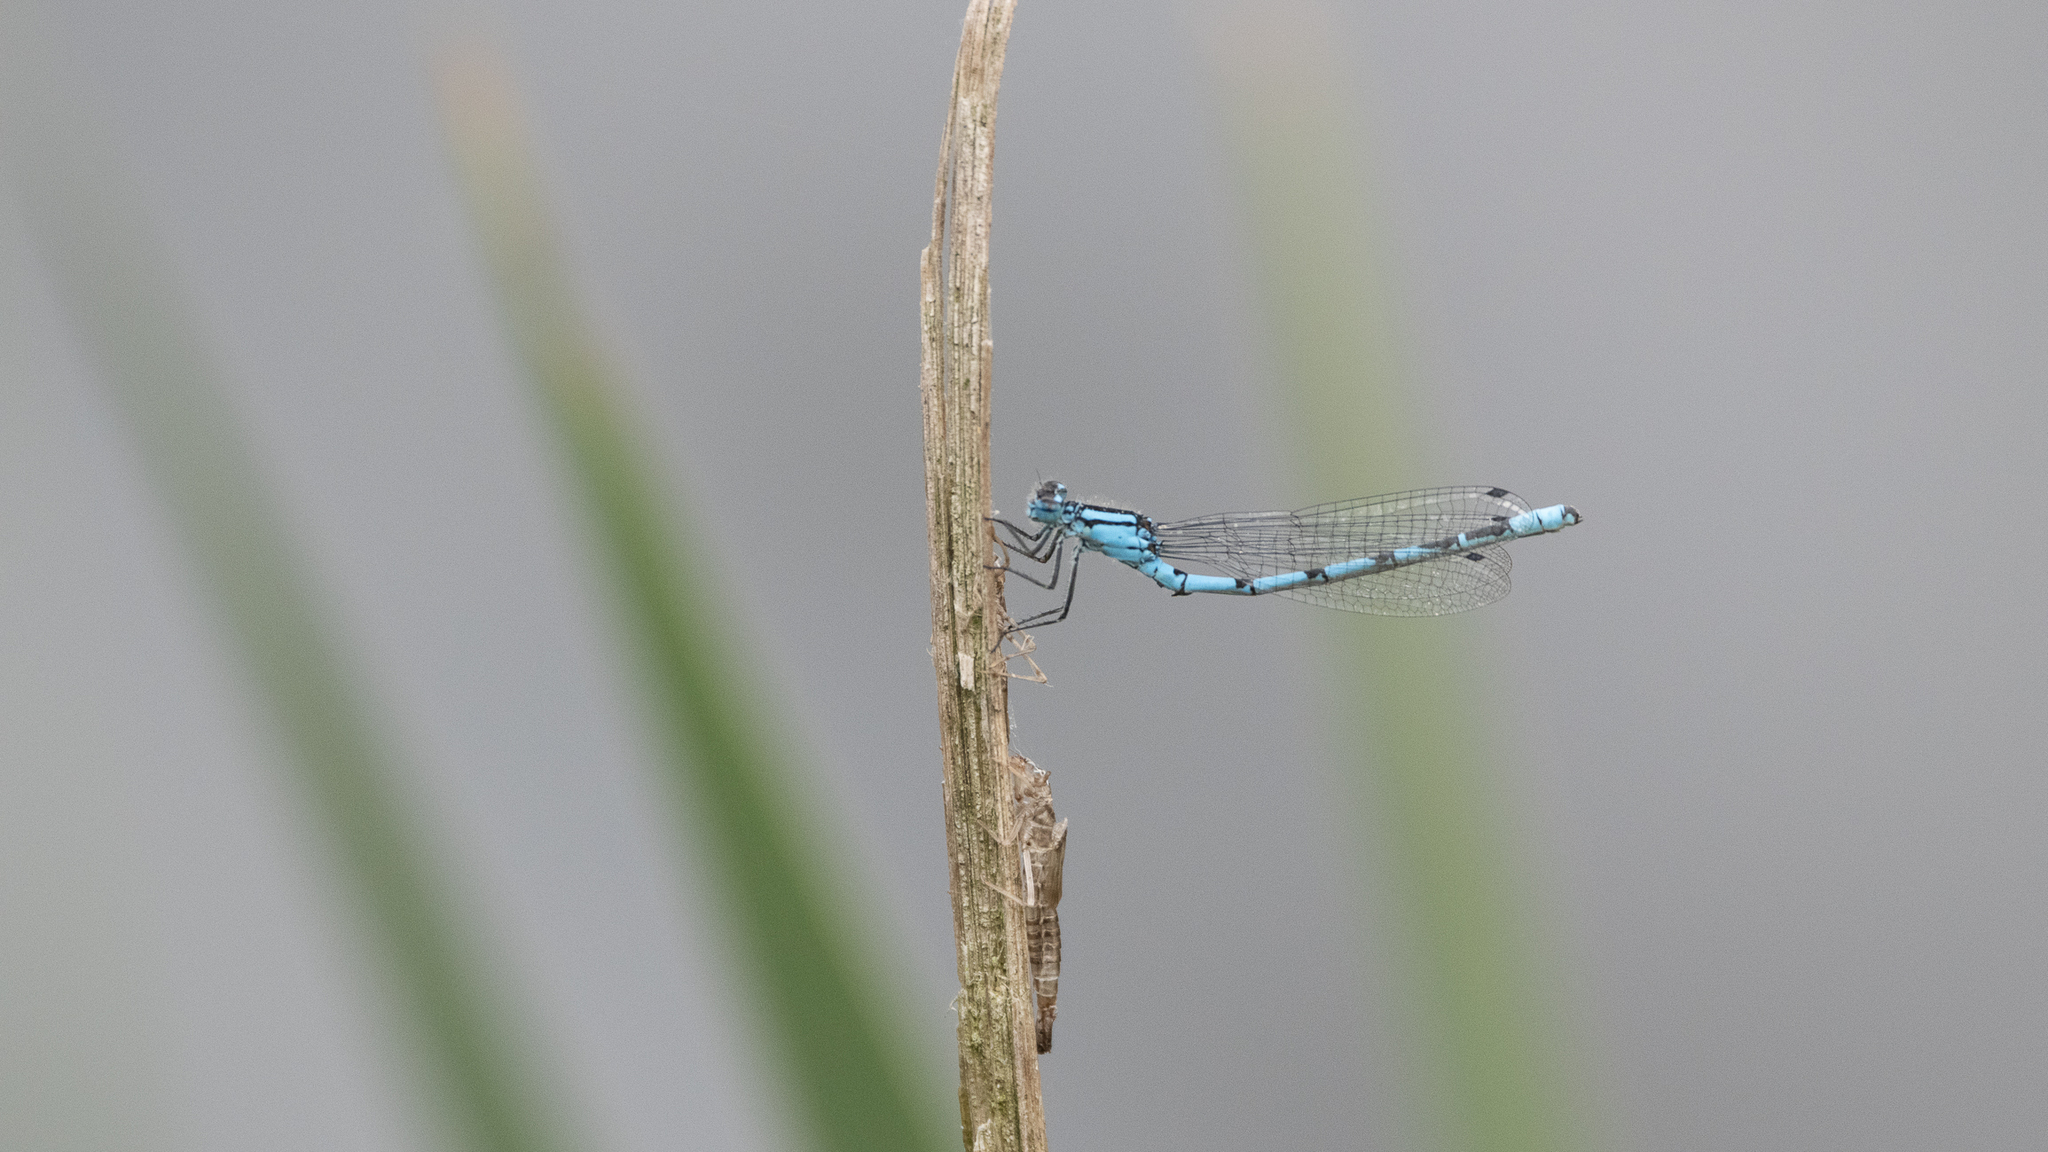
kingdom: Animalia
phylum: Arthropoda
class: Insecta
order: Odonata
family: Coenagrionidae
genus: Enallagma
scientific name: Enallagma cyathigerum
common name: Common blue damselfly
